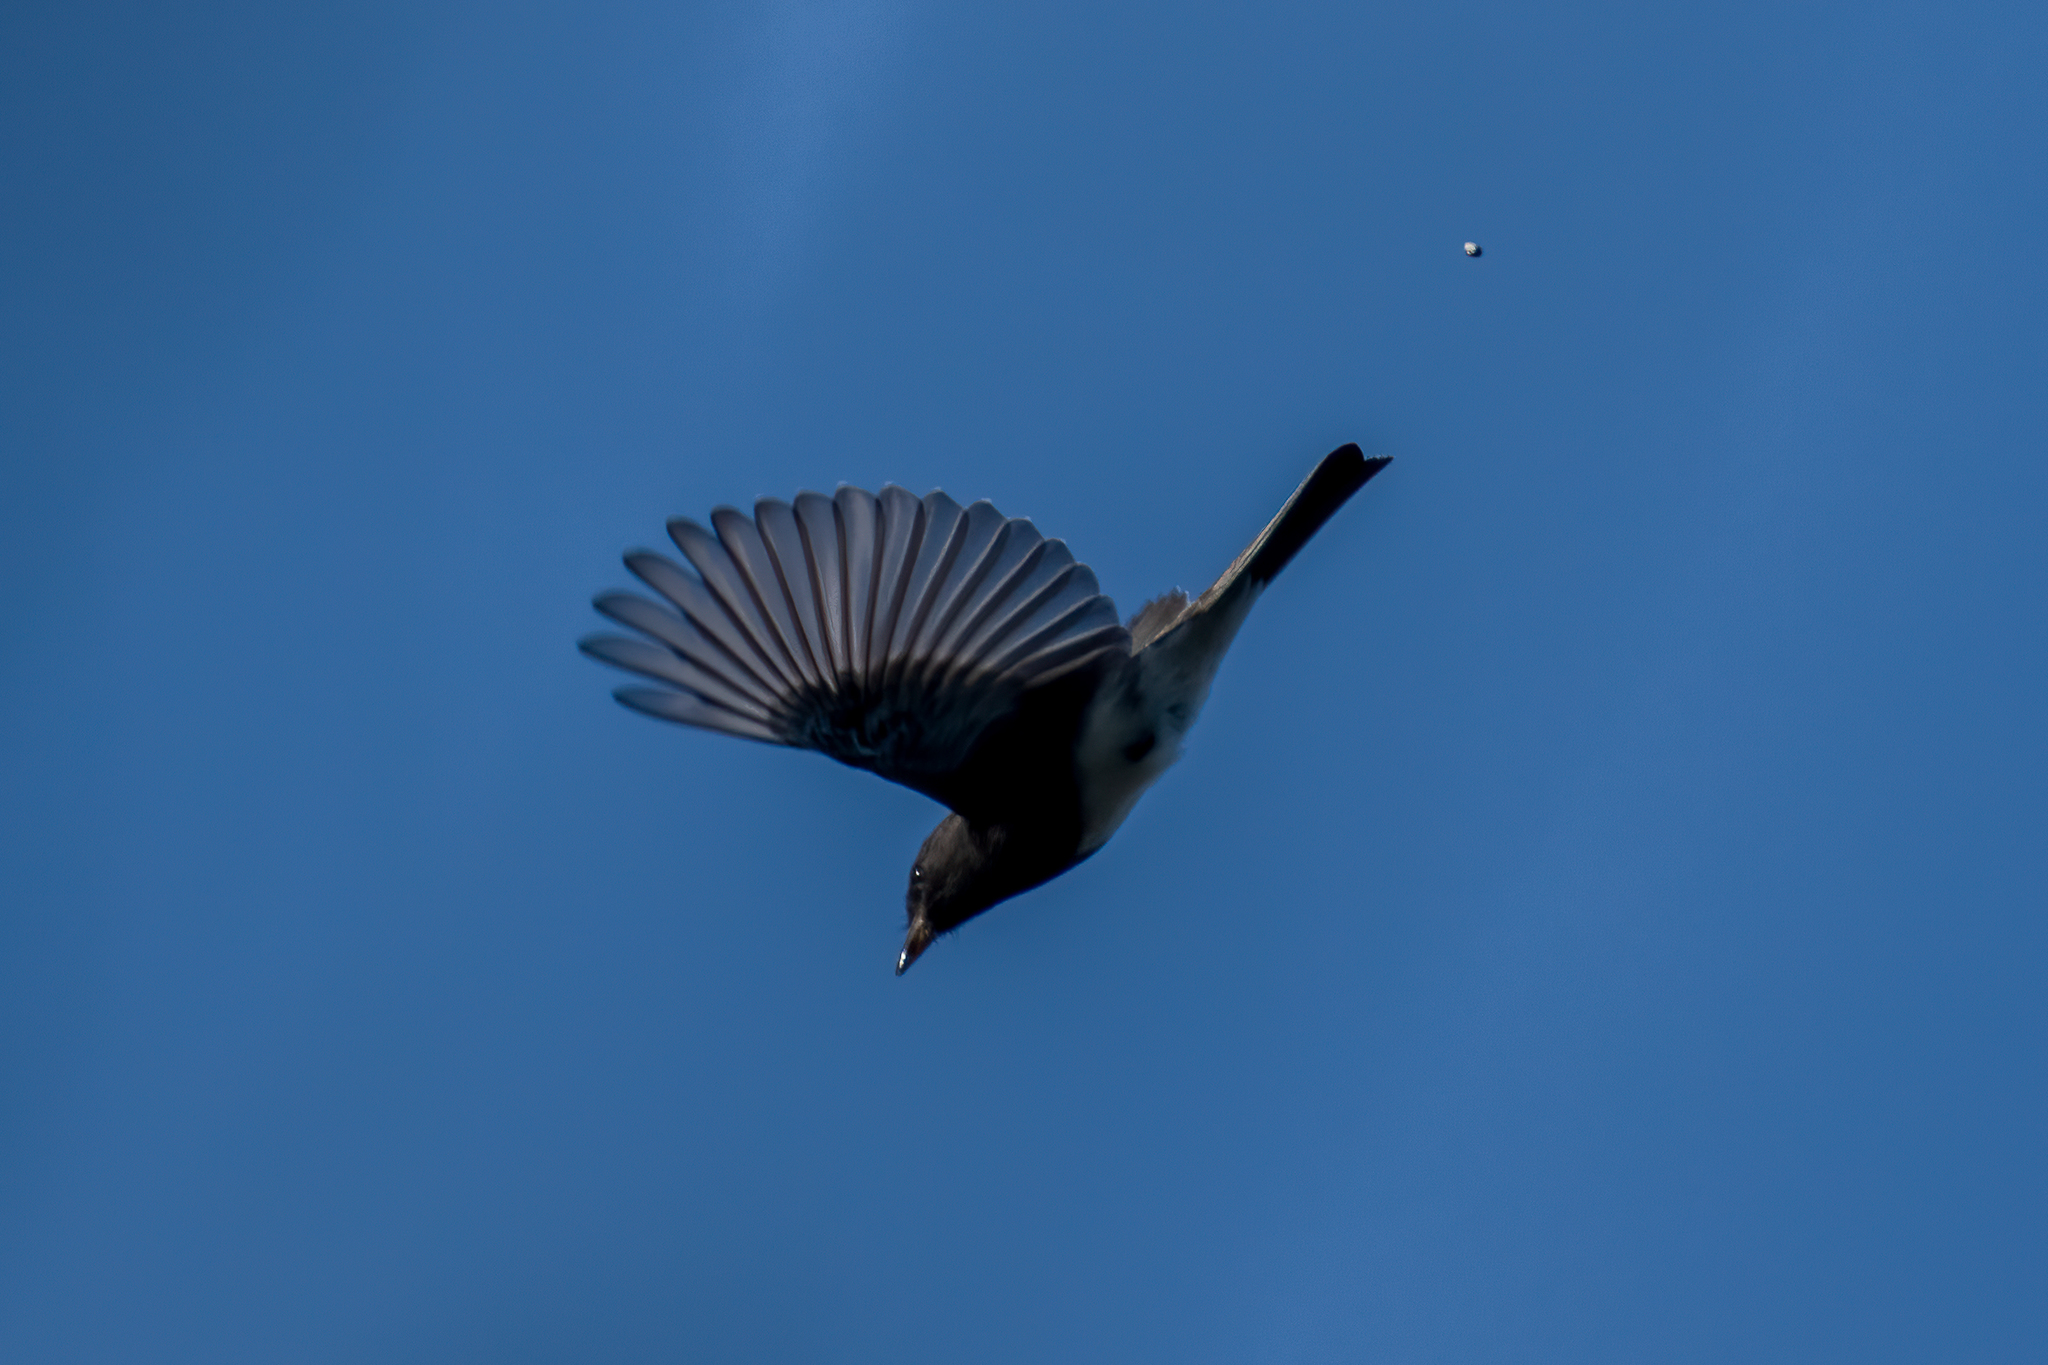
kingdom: Animalia
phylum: Chordata
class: Aves
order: Passeriformes
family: Tyrannidae
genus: Sayornis
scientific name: Sayornis nigricans
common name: Black phoebe
